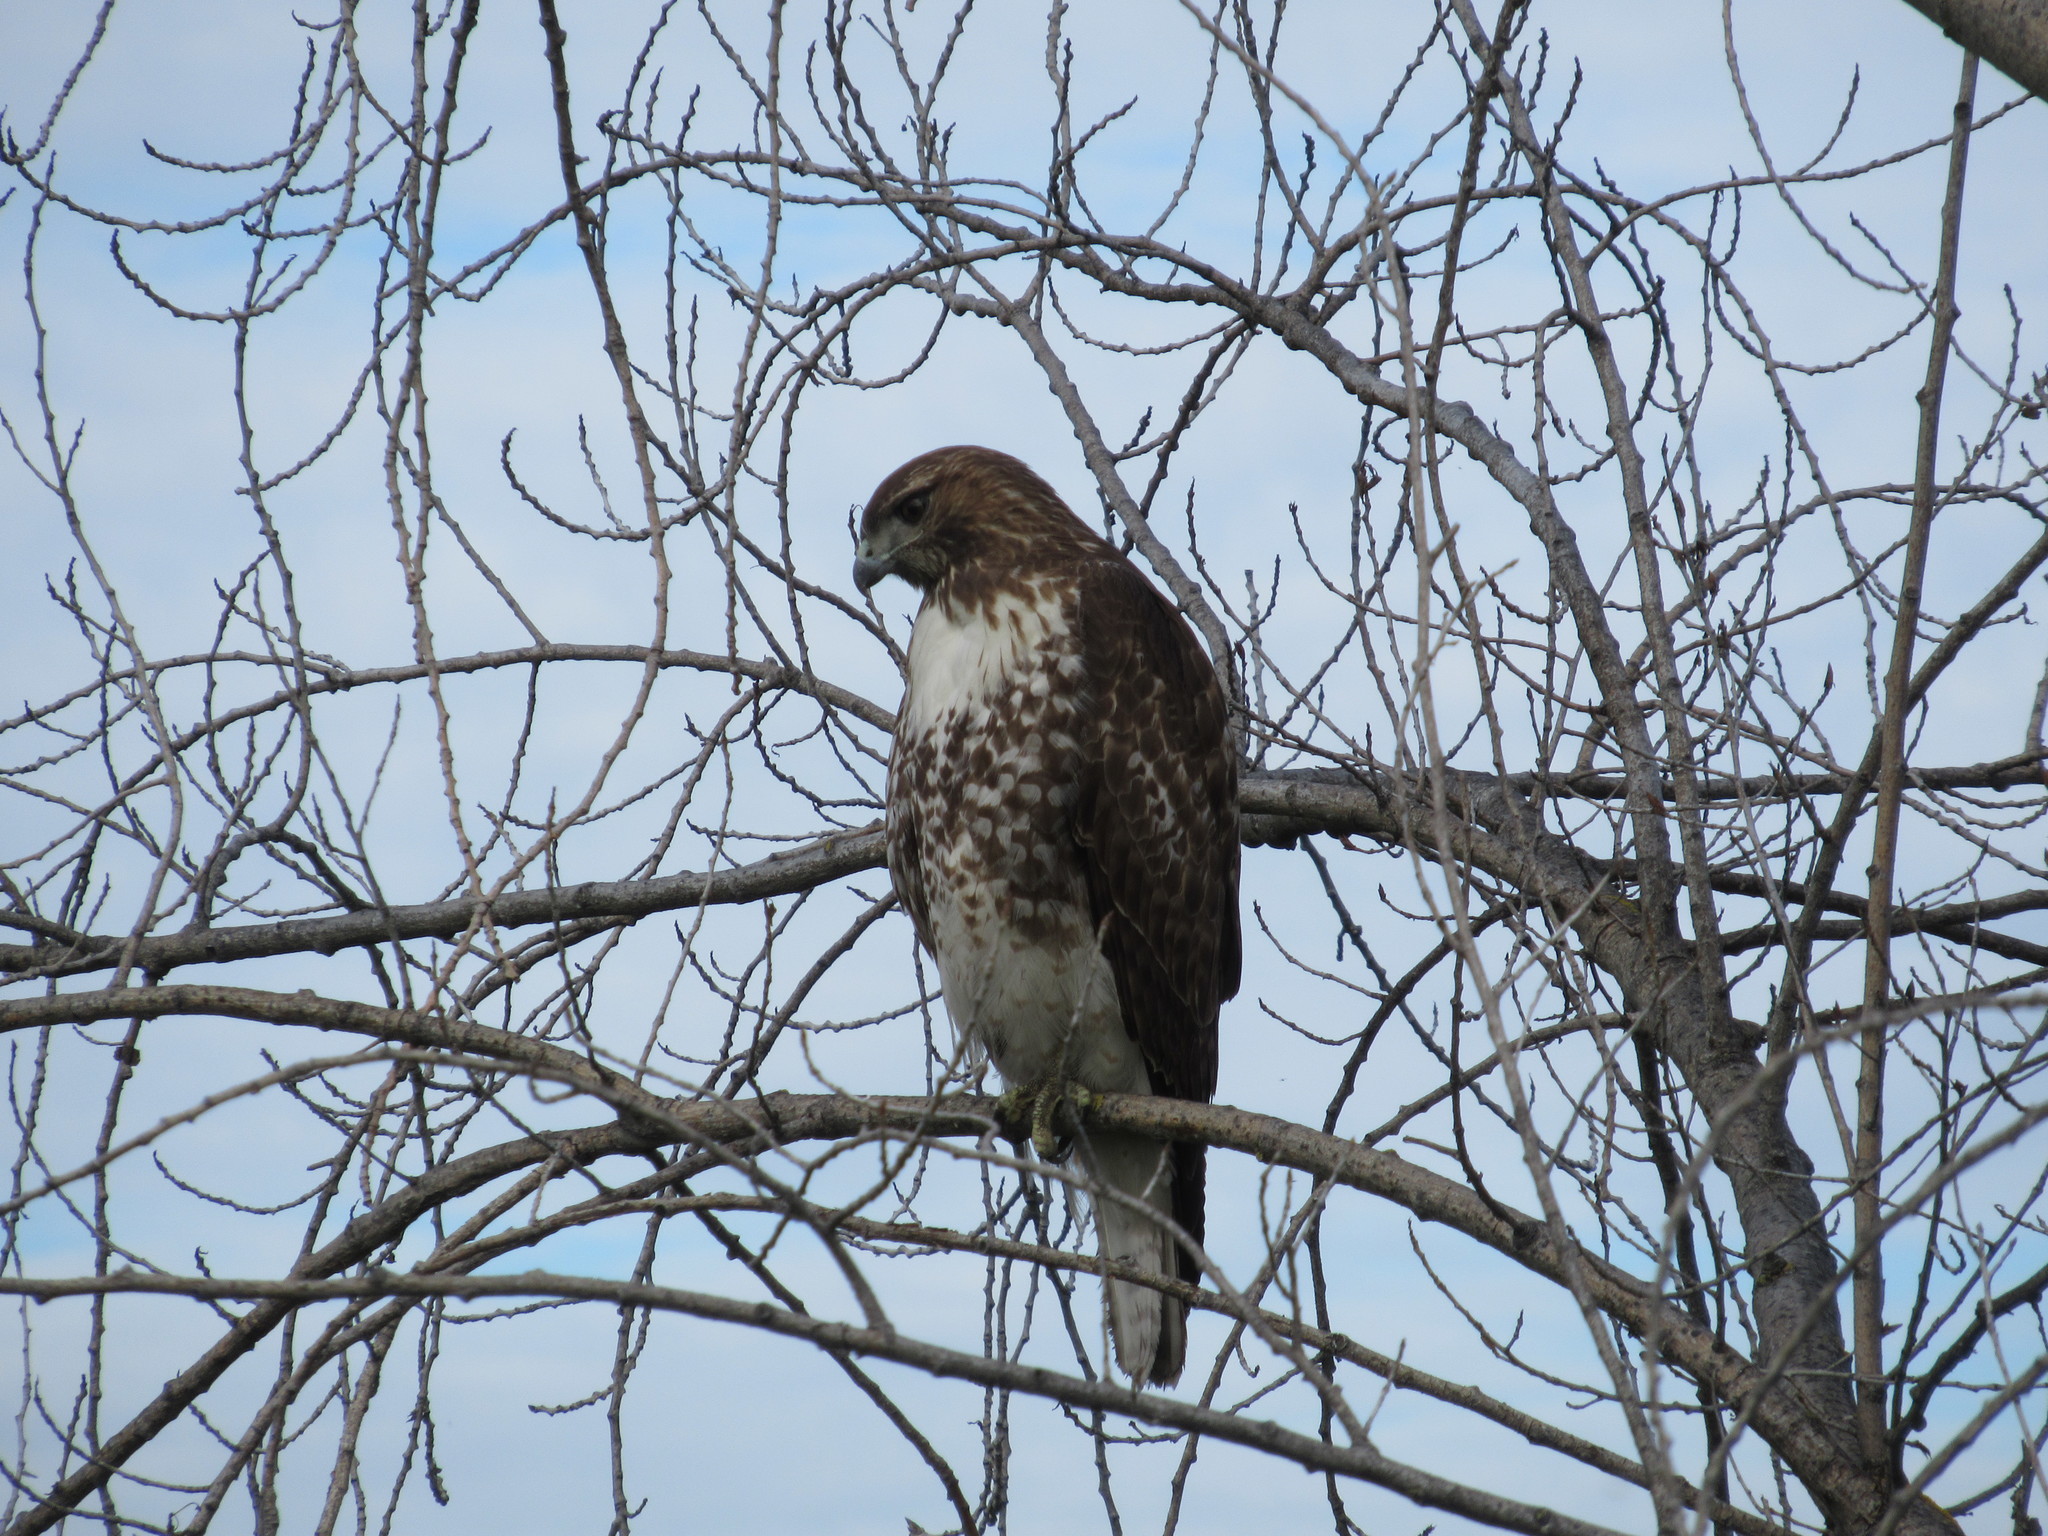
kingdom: Animalia
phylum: Chordata
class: Aves
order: Accipitriformes
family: Accipitridae
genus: Buteo
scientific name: Buteo jamaicensis
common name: Red-tailed hawk
